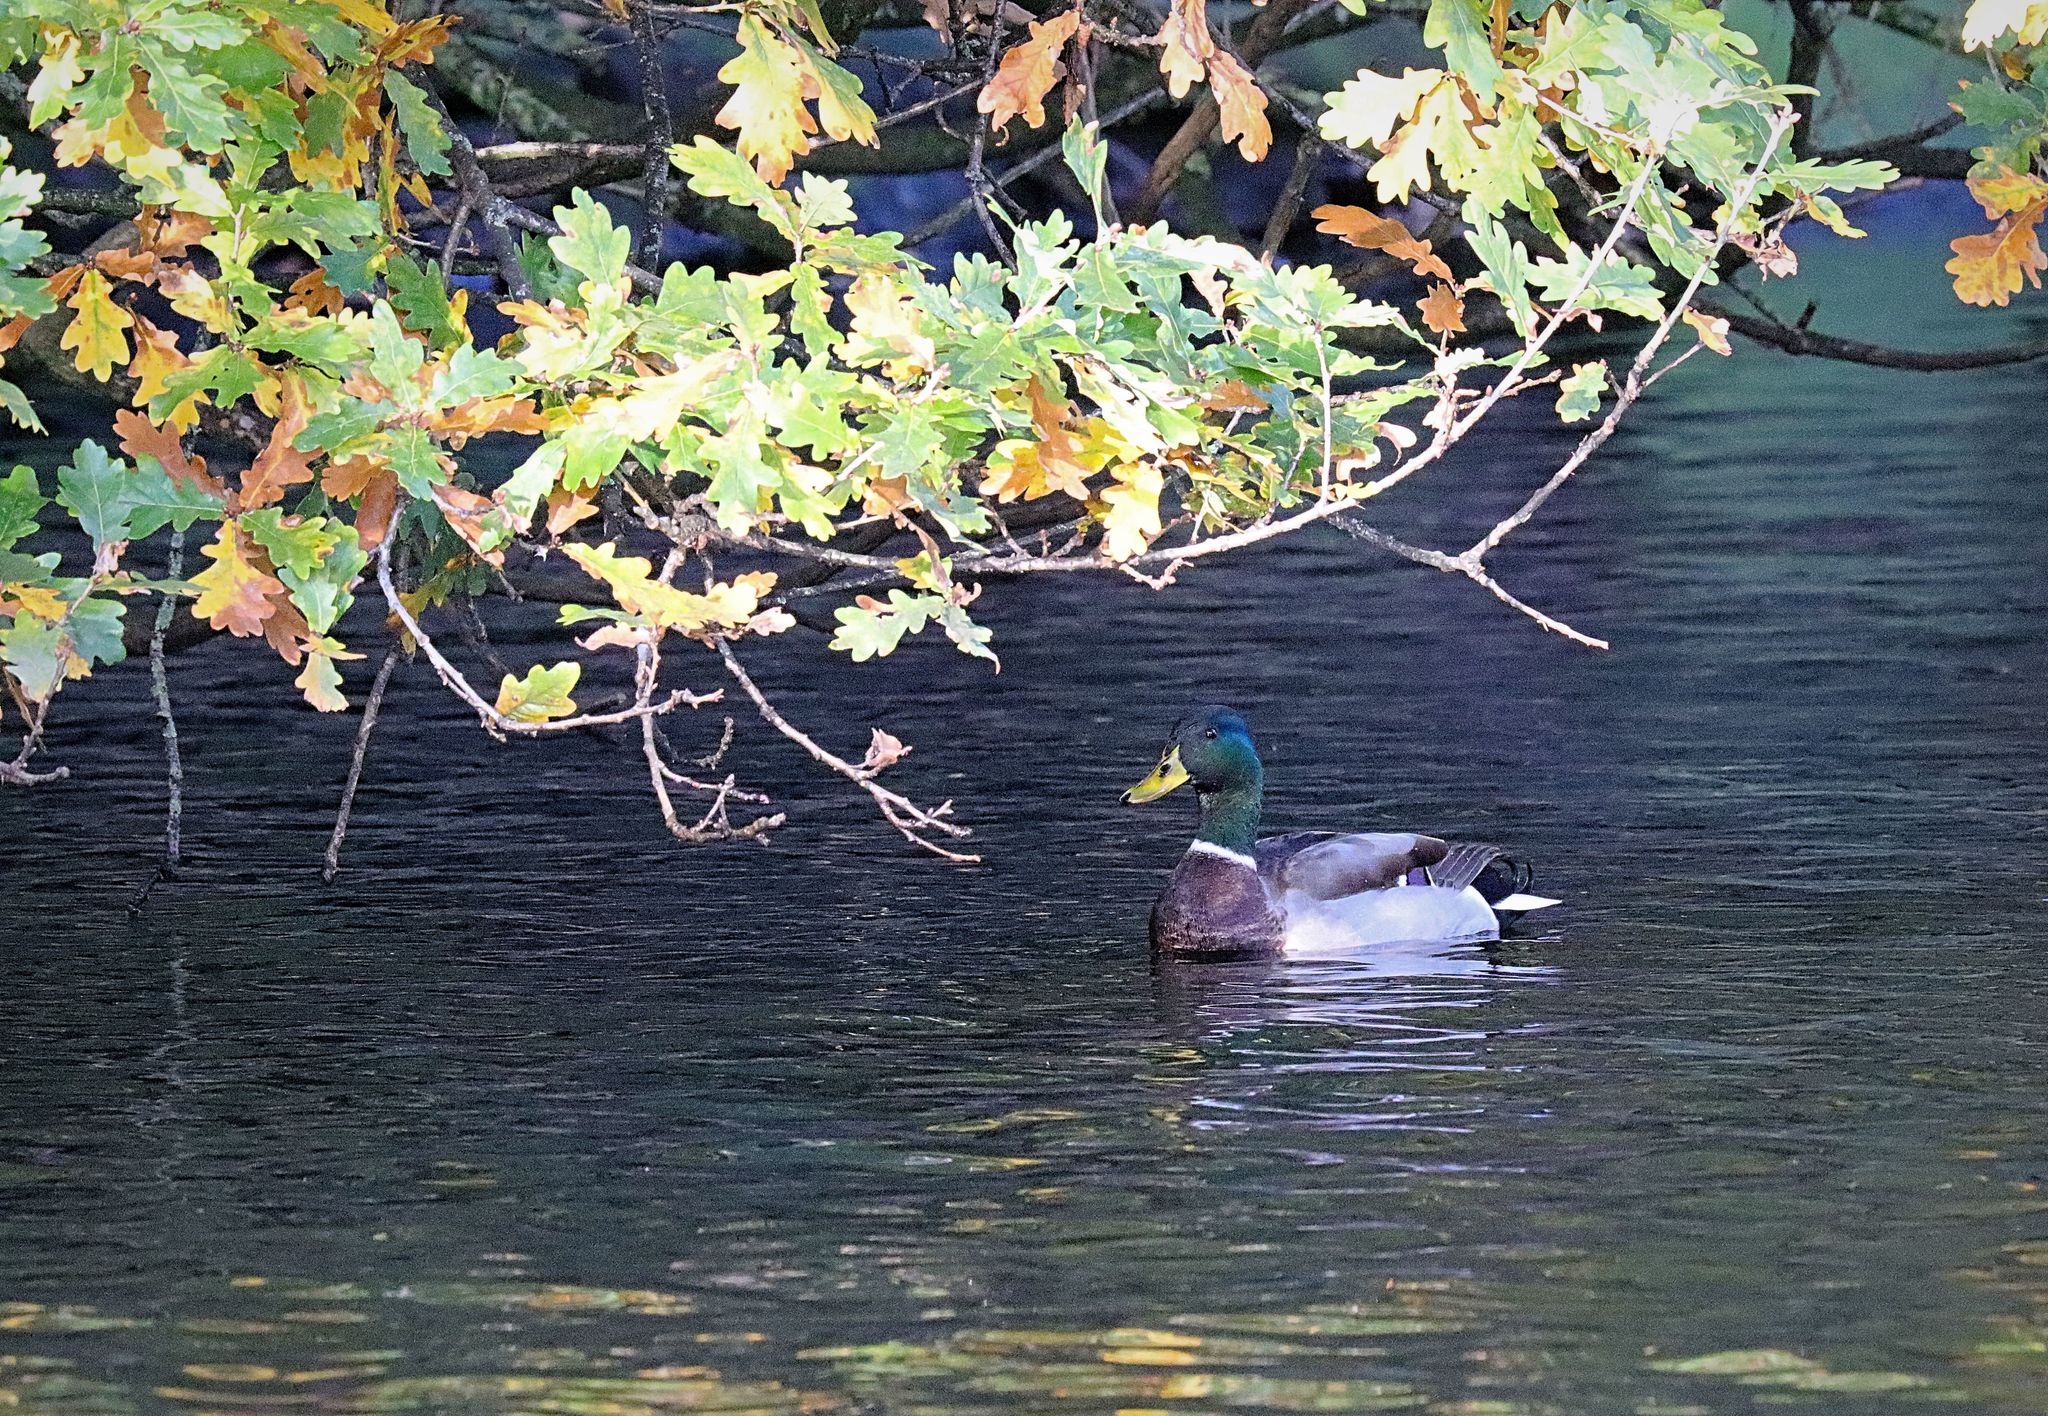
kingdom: Animalia
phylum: Chordata
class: Aves
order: Anseriformes
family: Anatidae
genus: Anas
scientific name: Anas platyrhynchos
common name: Mallard
